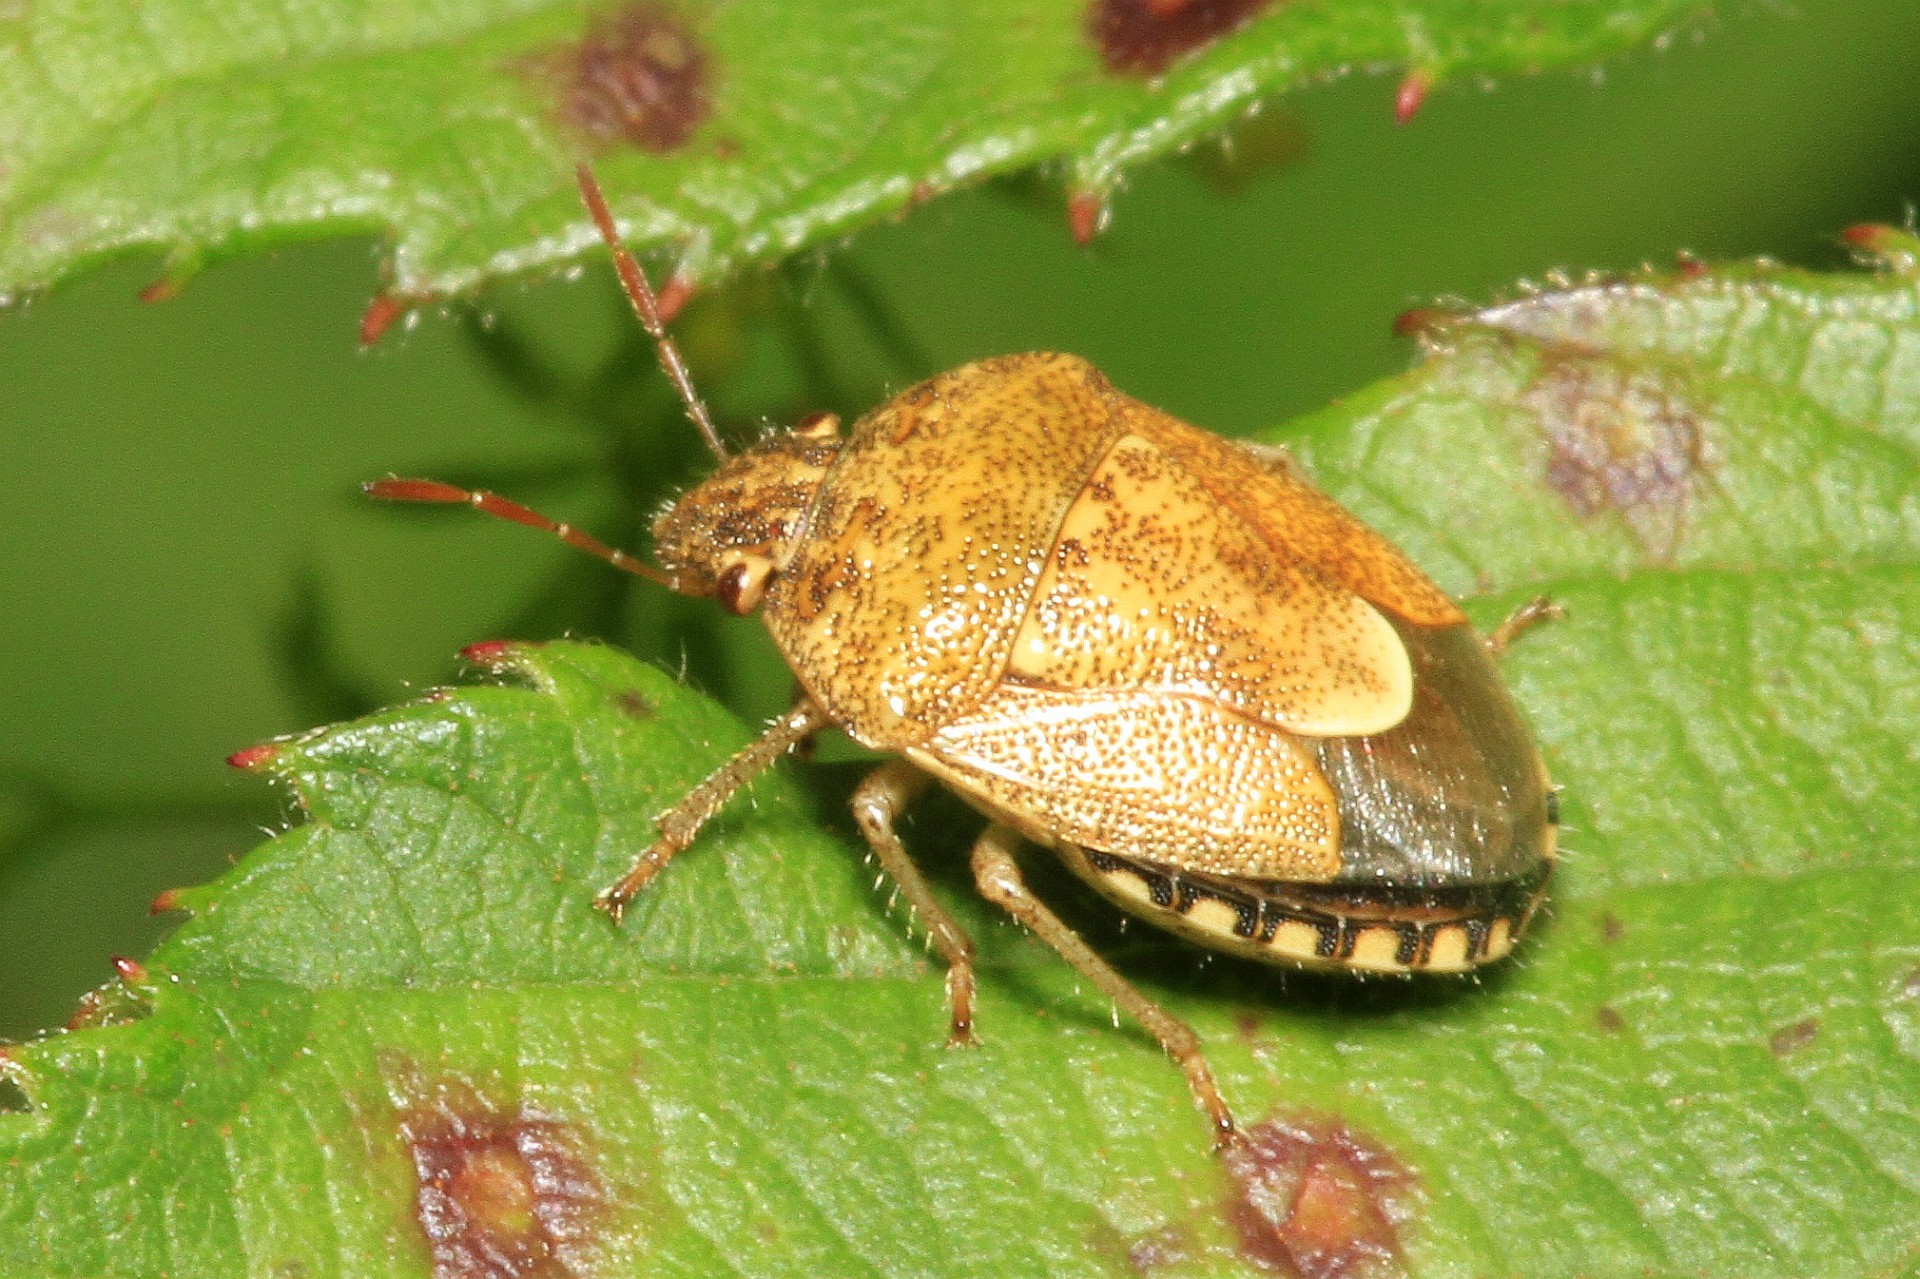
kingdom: Animalia
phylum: Arthropoda
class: Insecta
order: Hemiptera
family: Pentatomidae
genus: Staria
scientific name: Staria lunata
